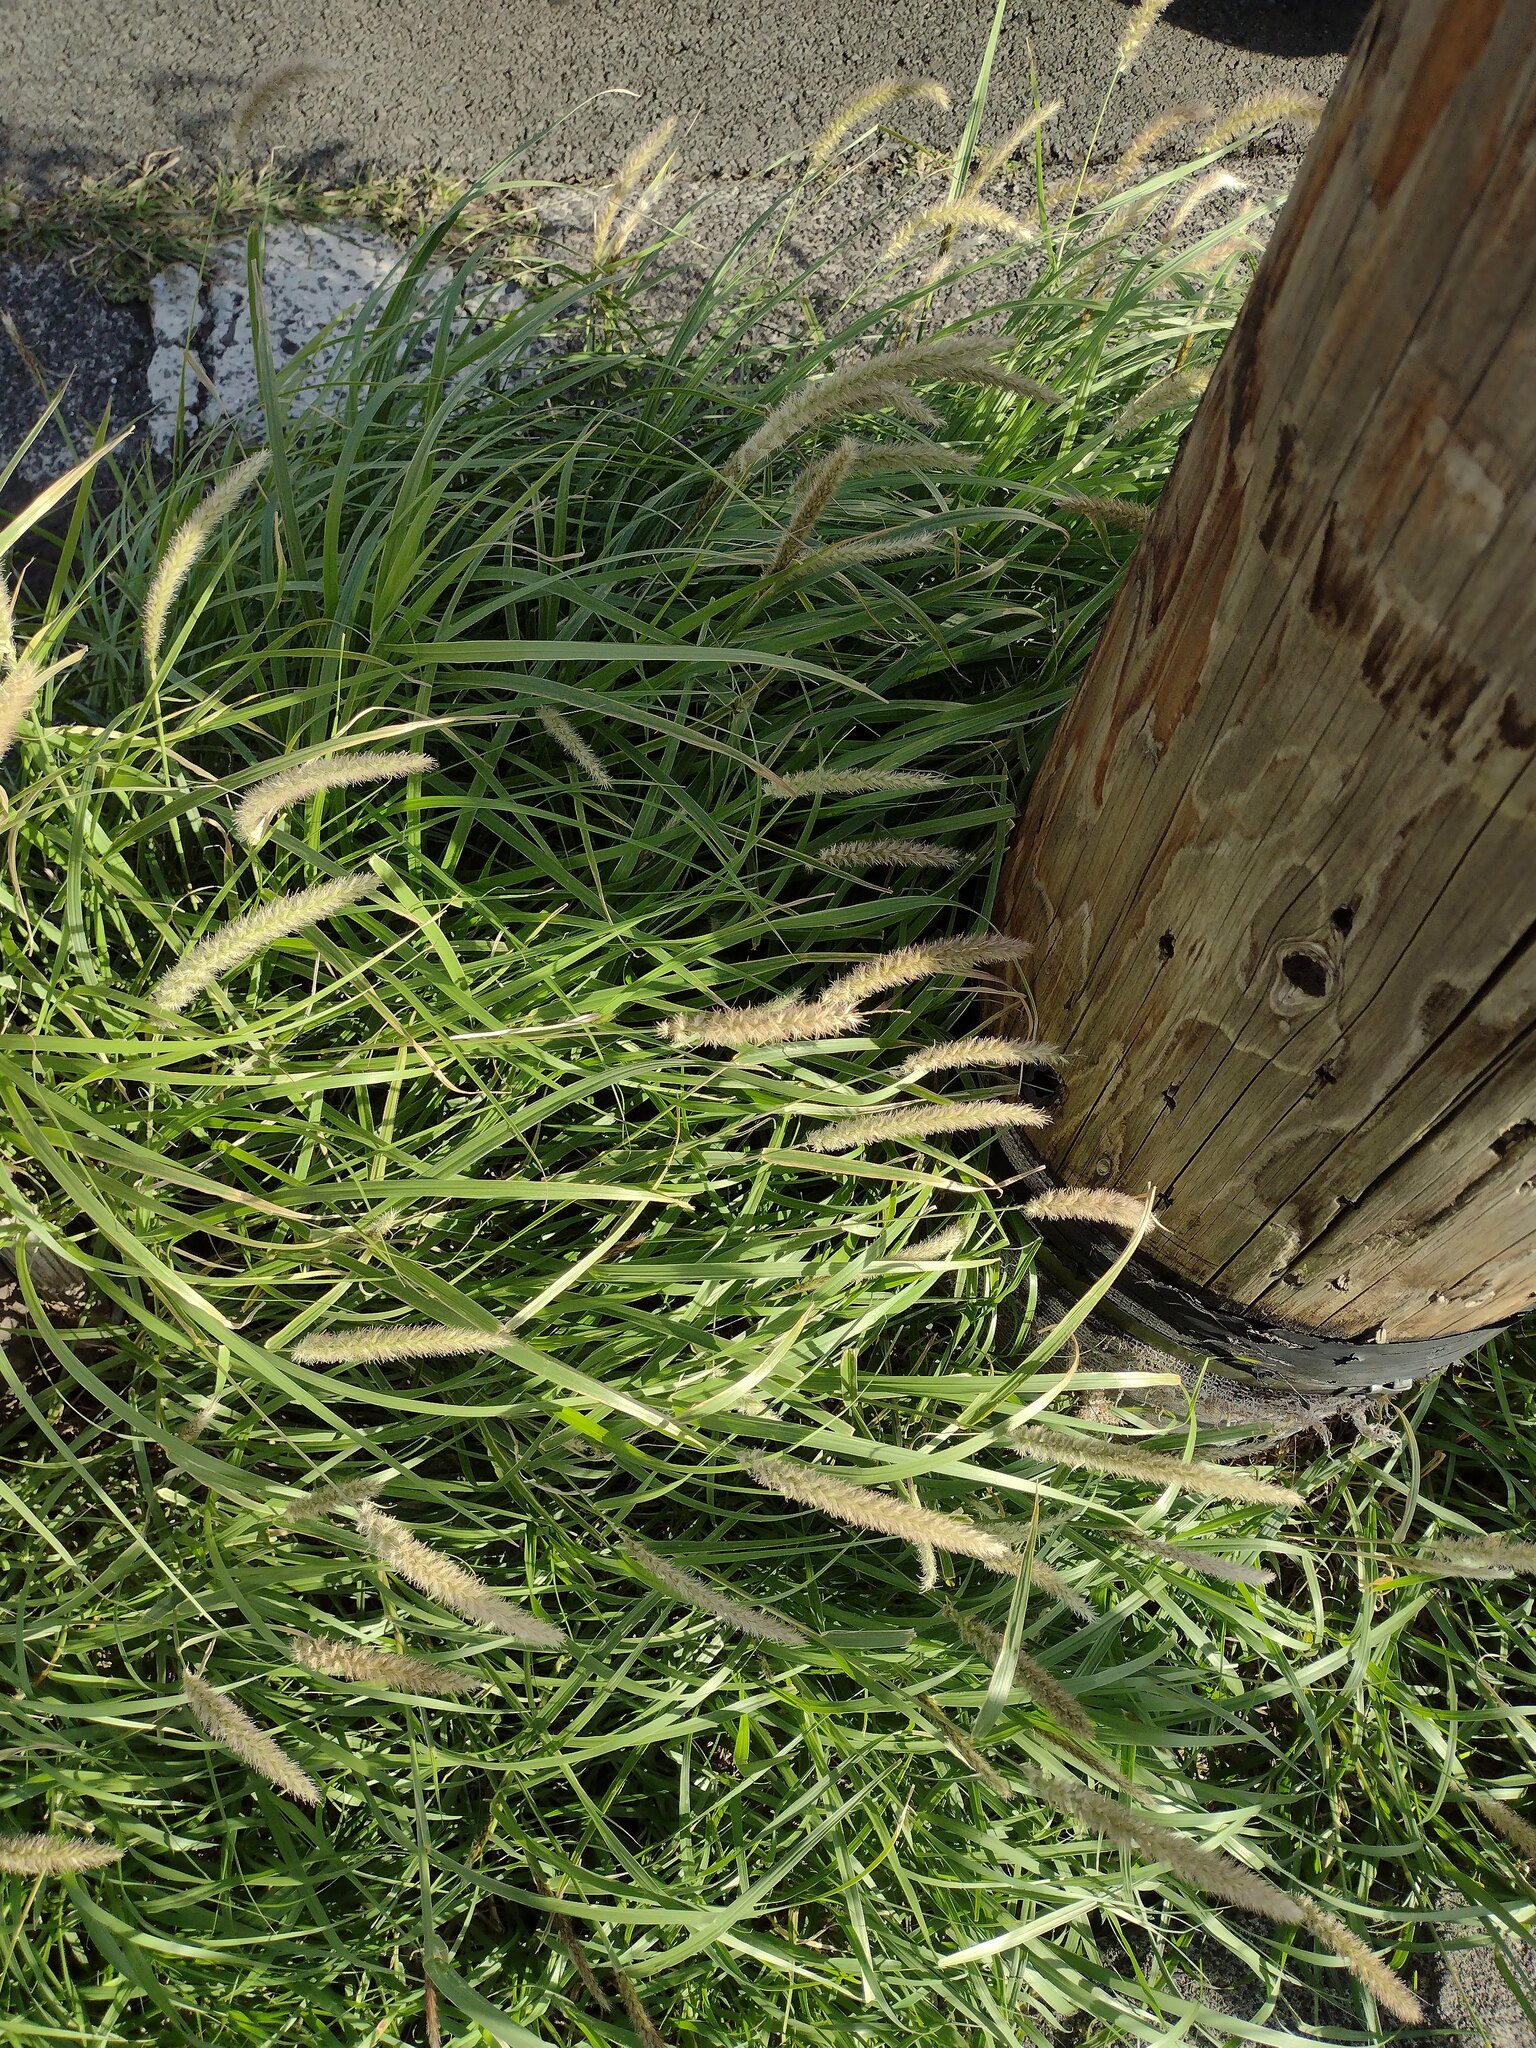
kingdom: Plantae
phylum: Tracheophyta
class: Liliopsida
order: Poales
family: Poaceae
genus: Cenchrus
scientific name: Cenchrus ciliaris
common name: Buffelgrass
